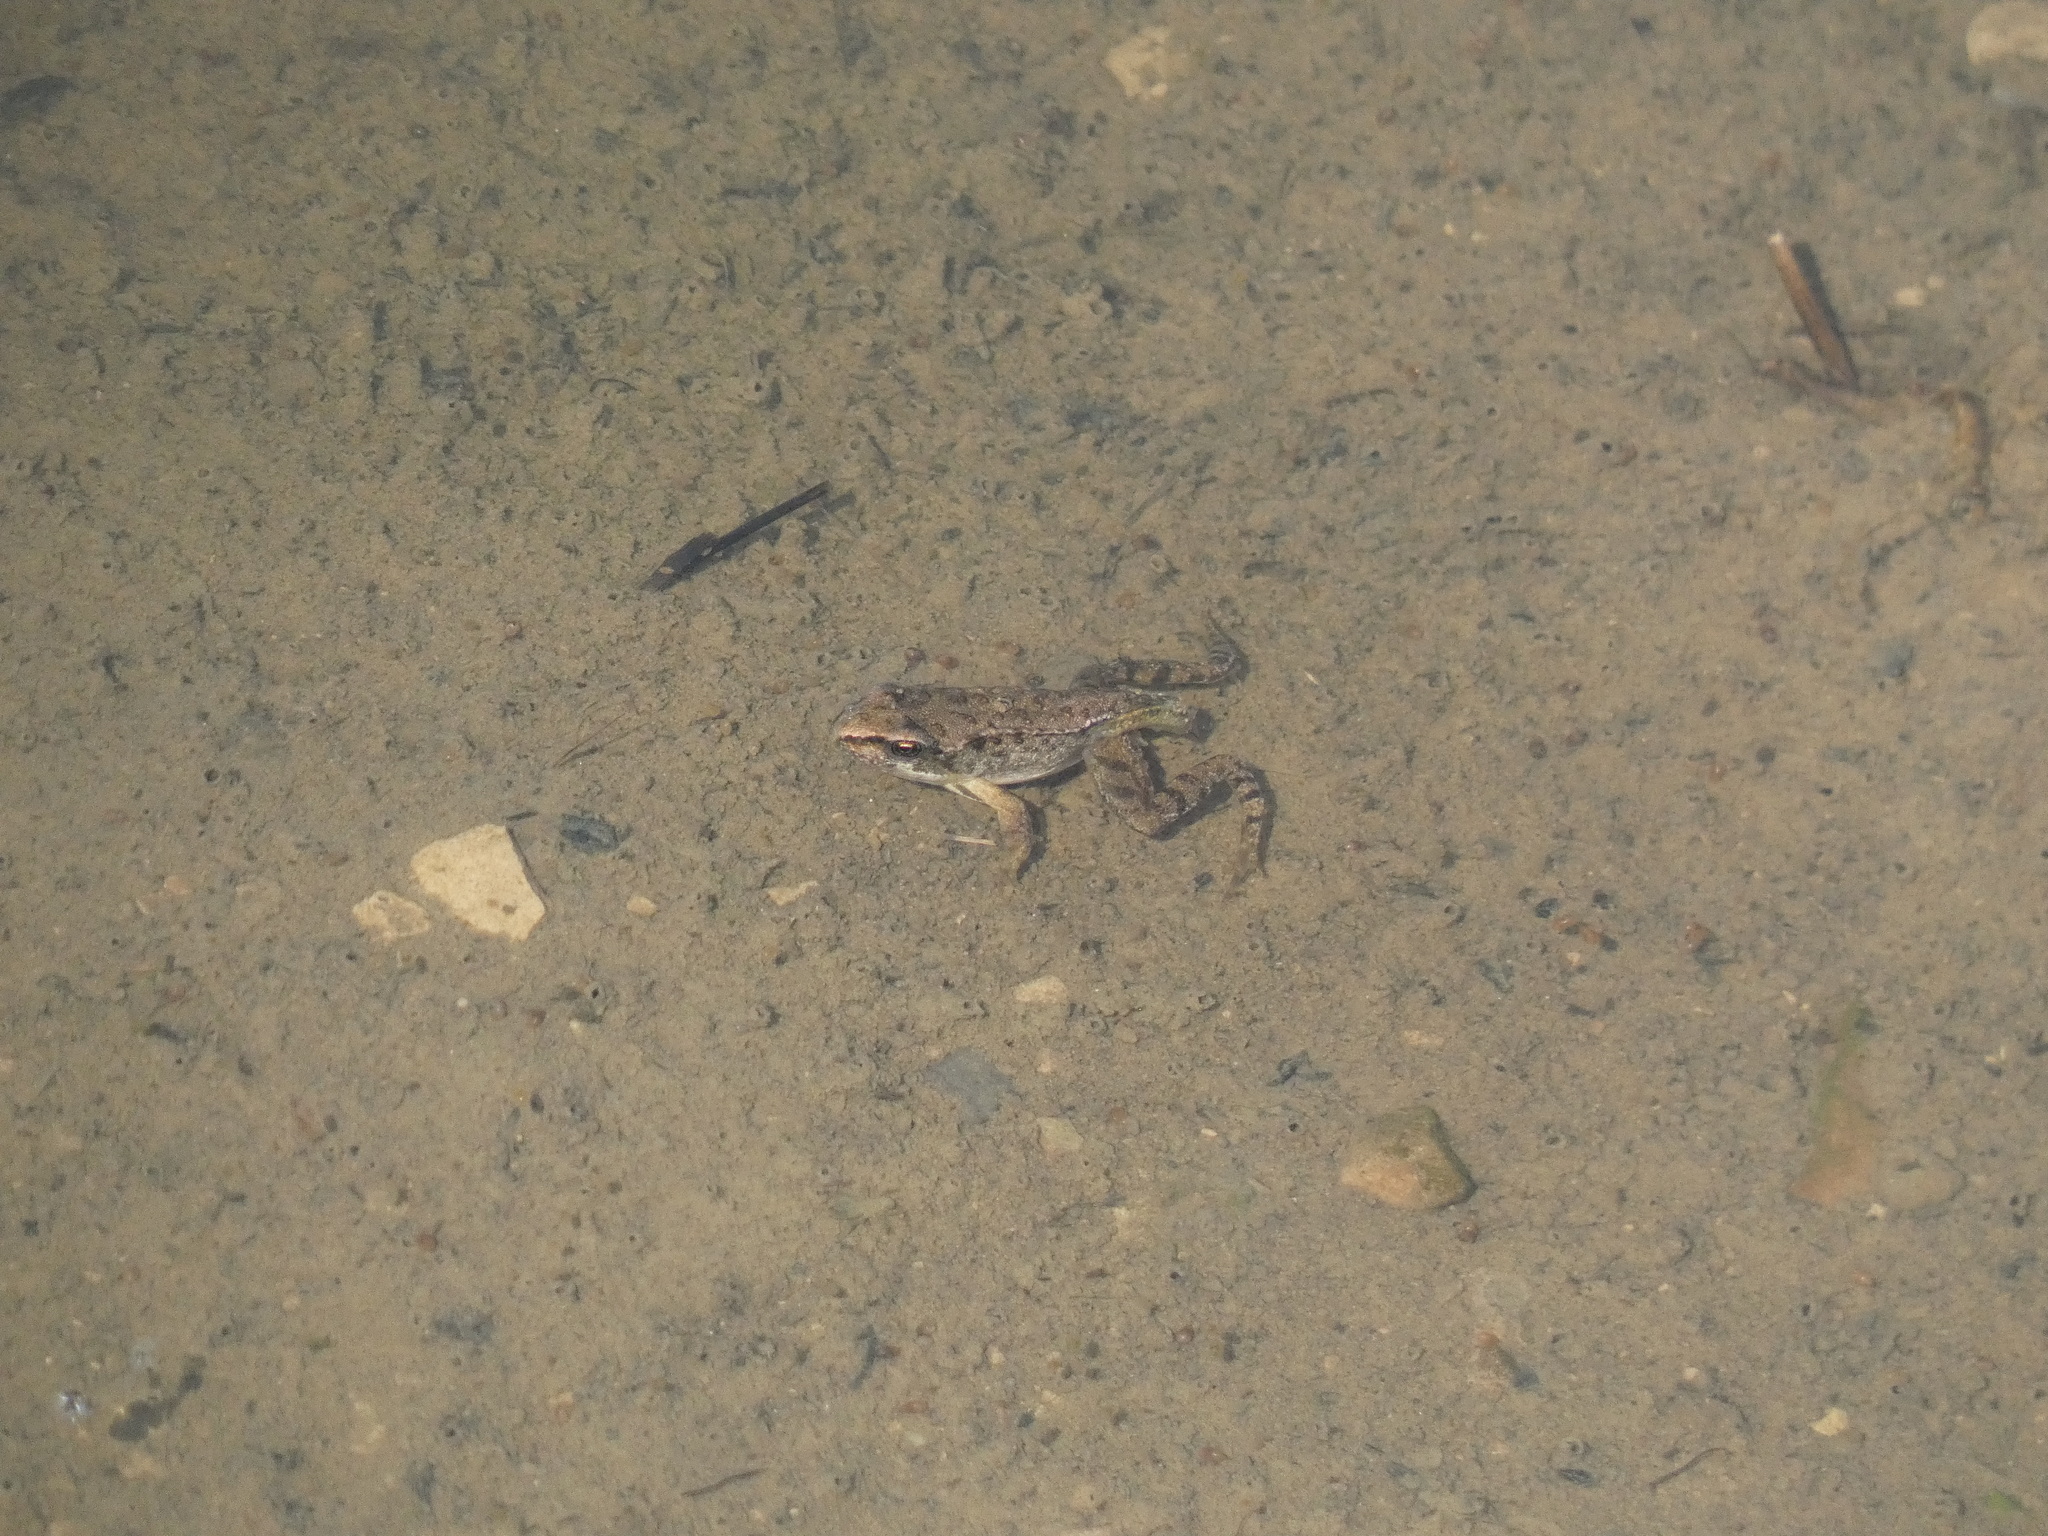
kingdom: Animalia
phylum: Chordata
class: Amphibia
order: Anura
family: Ranidae
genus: Rana
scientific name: Rana temporaria
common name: Common frog
